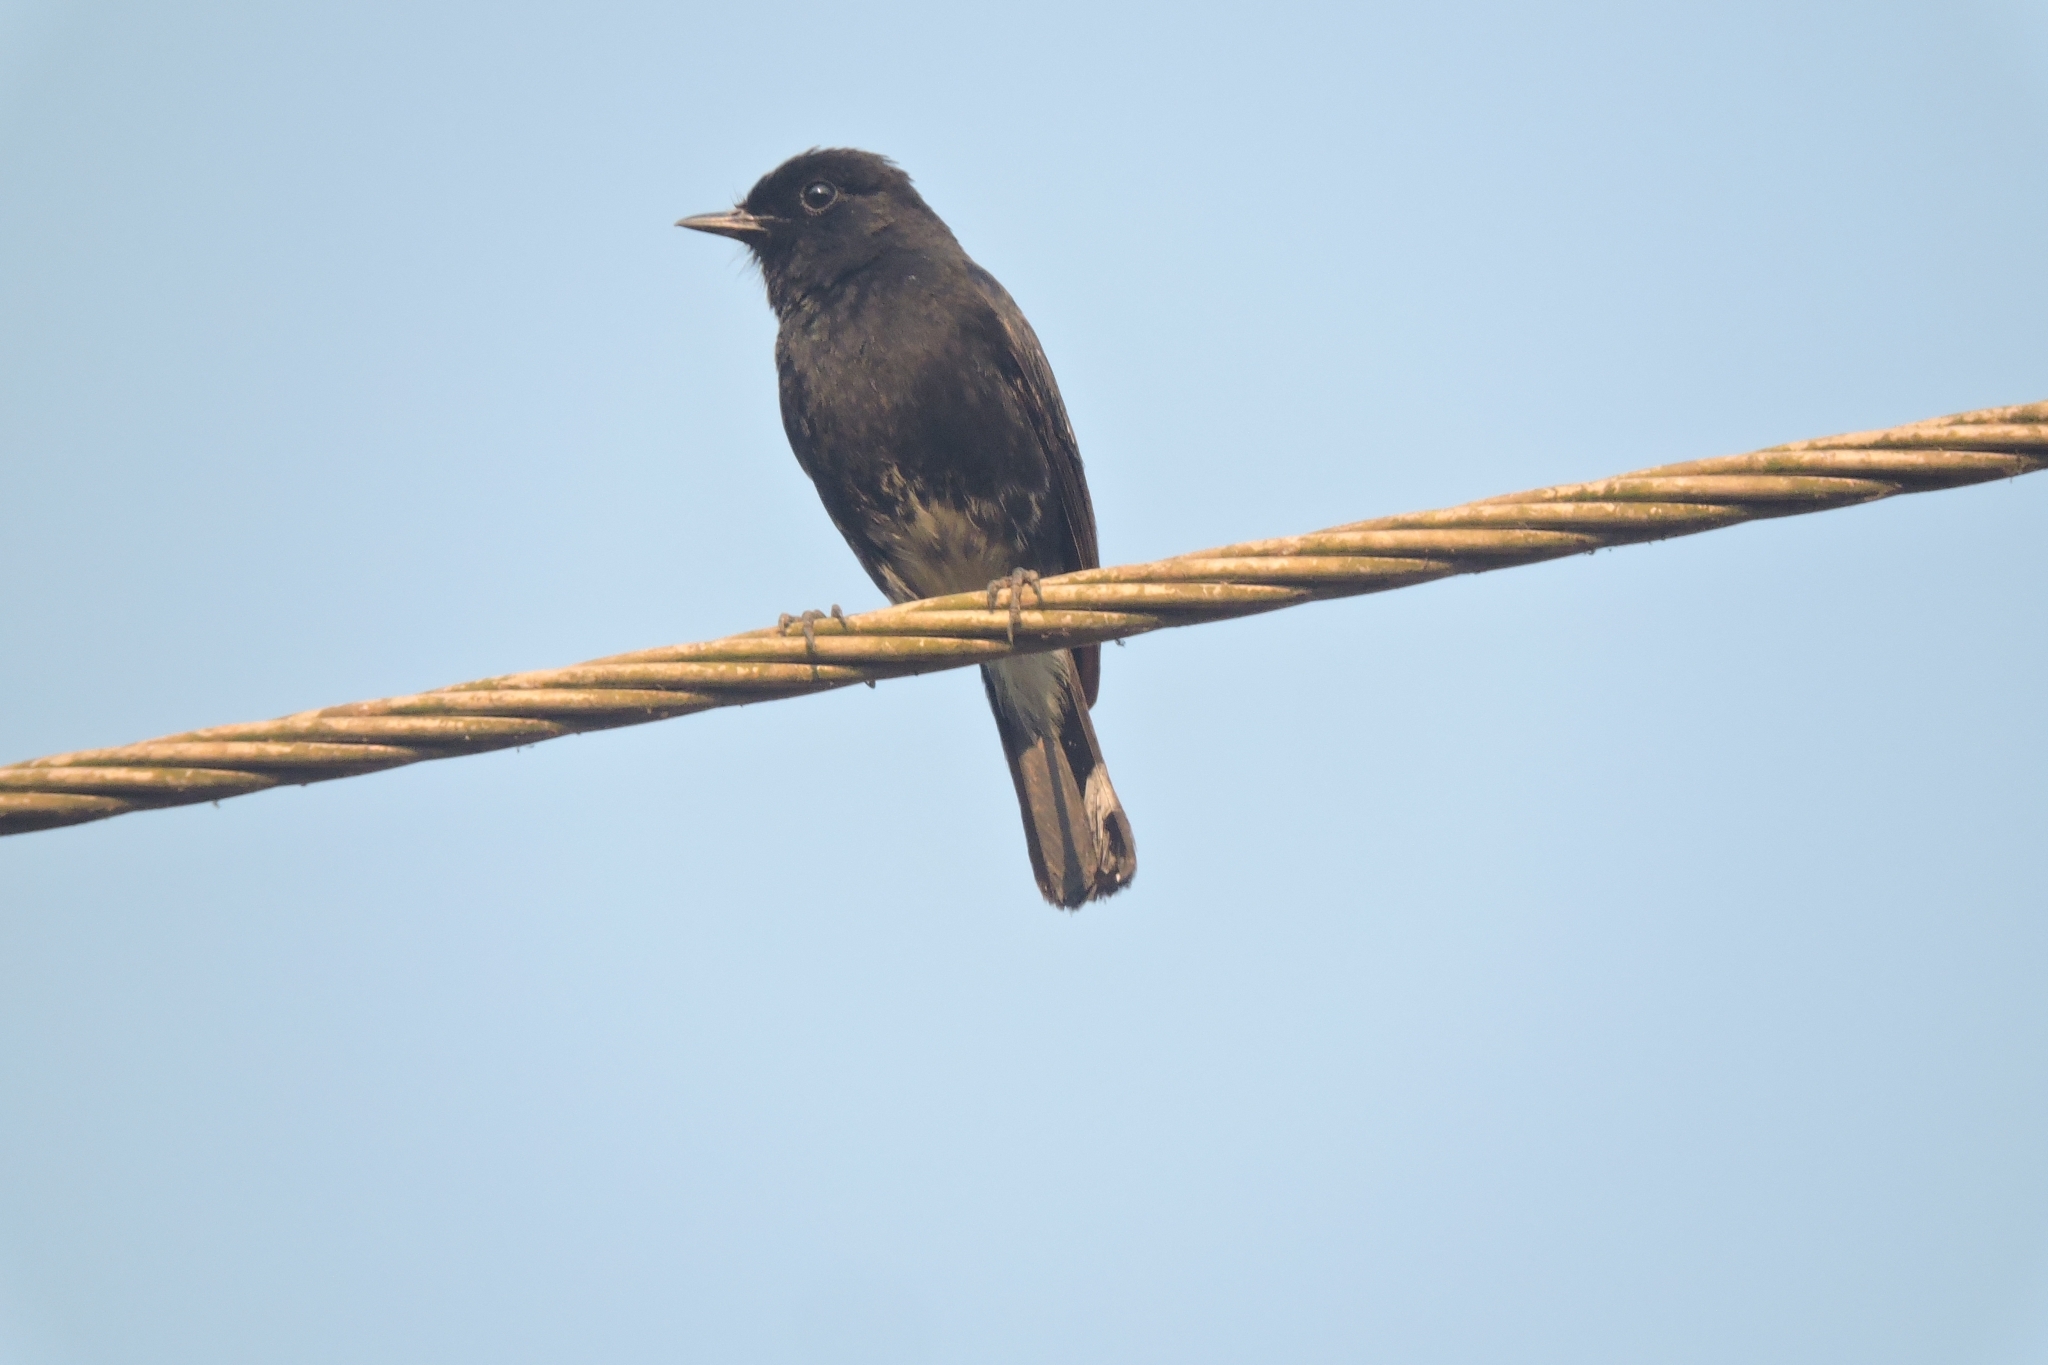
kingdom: Animalia
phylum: Chordata
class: Aves
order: Passeriformes
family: Muscicapidae
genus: Saxicola
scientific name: Saxicola caprata
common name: Pied bush chat
